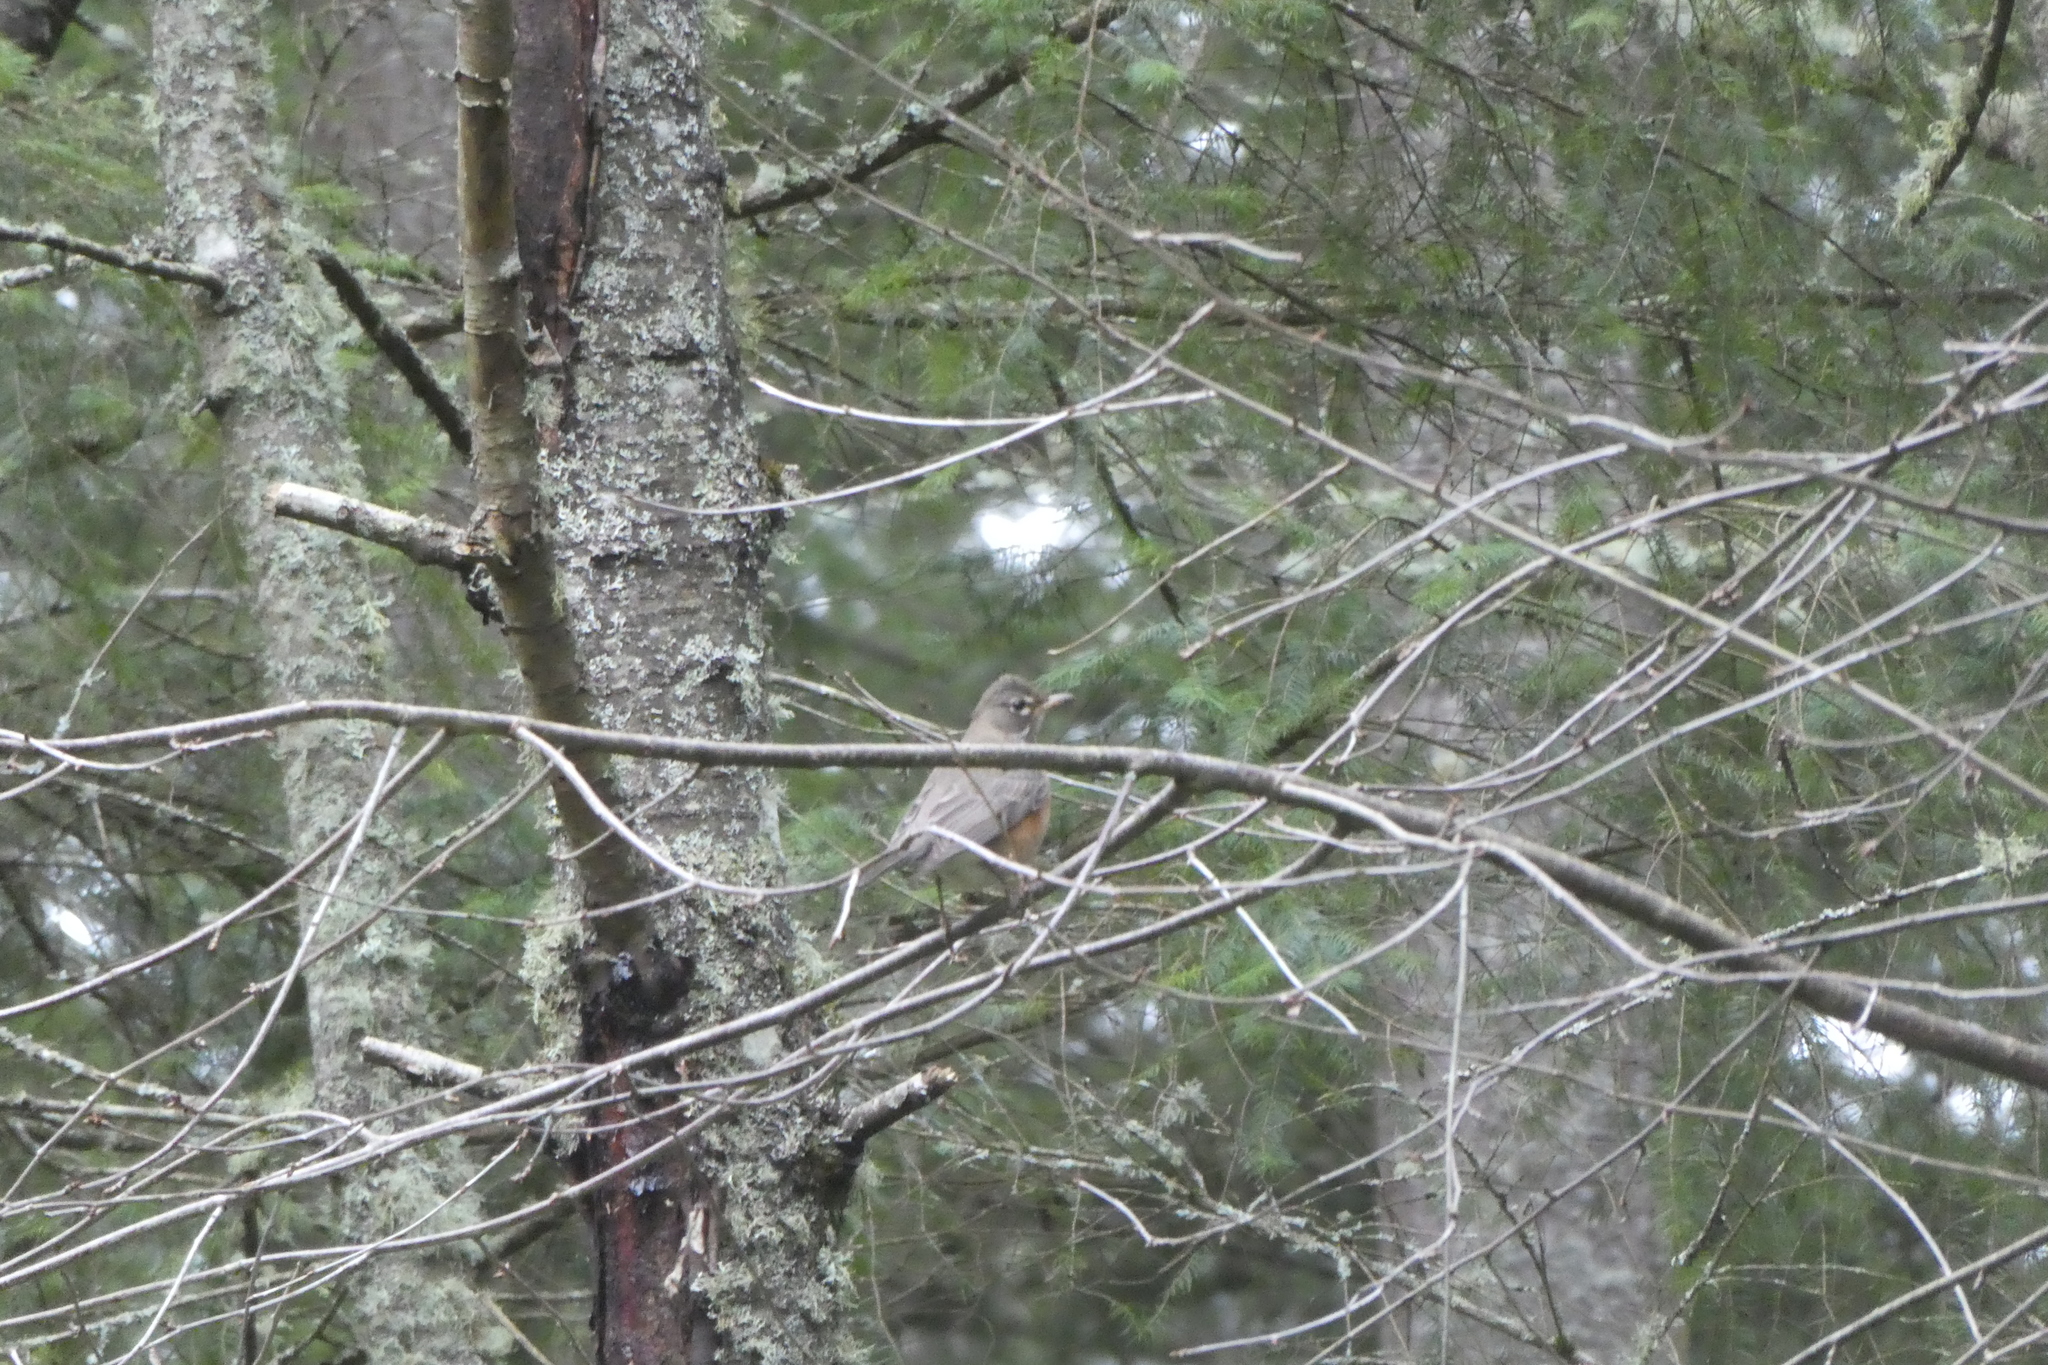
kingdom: Animalia
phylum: Chordata
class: Aves
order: Passeriformes
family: Turdidae
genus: Turdus
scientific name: Turdus migratorius
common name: American robin
